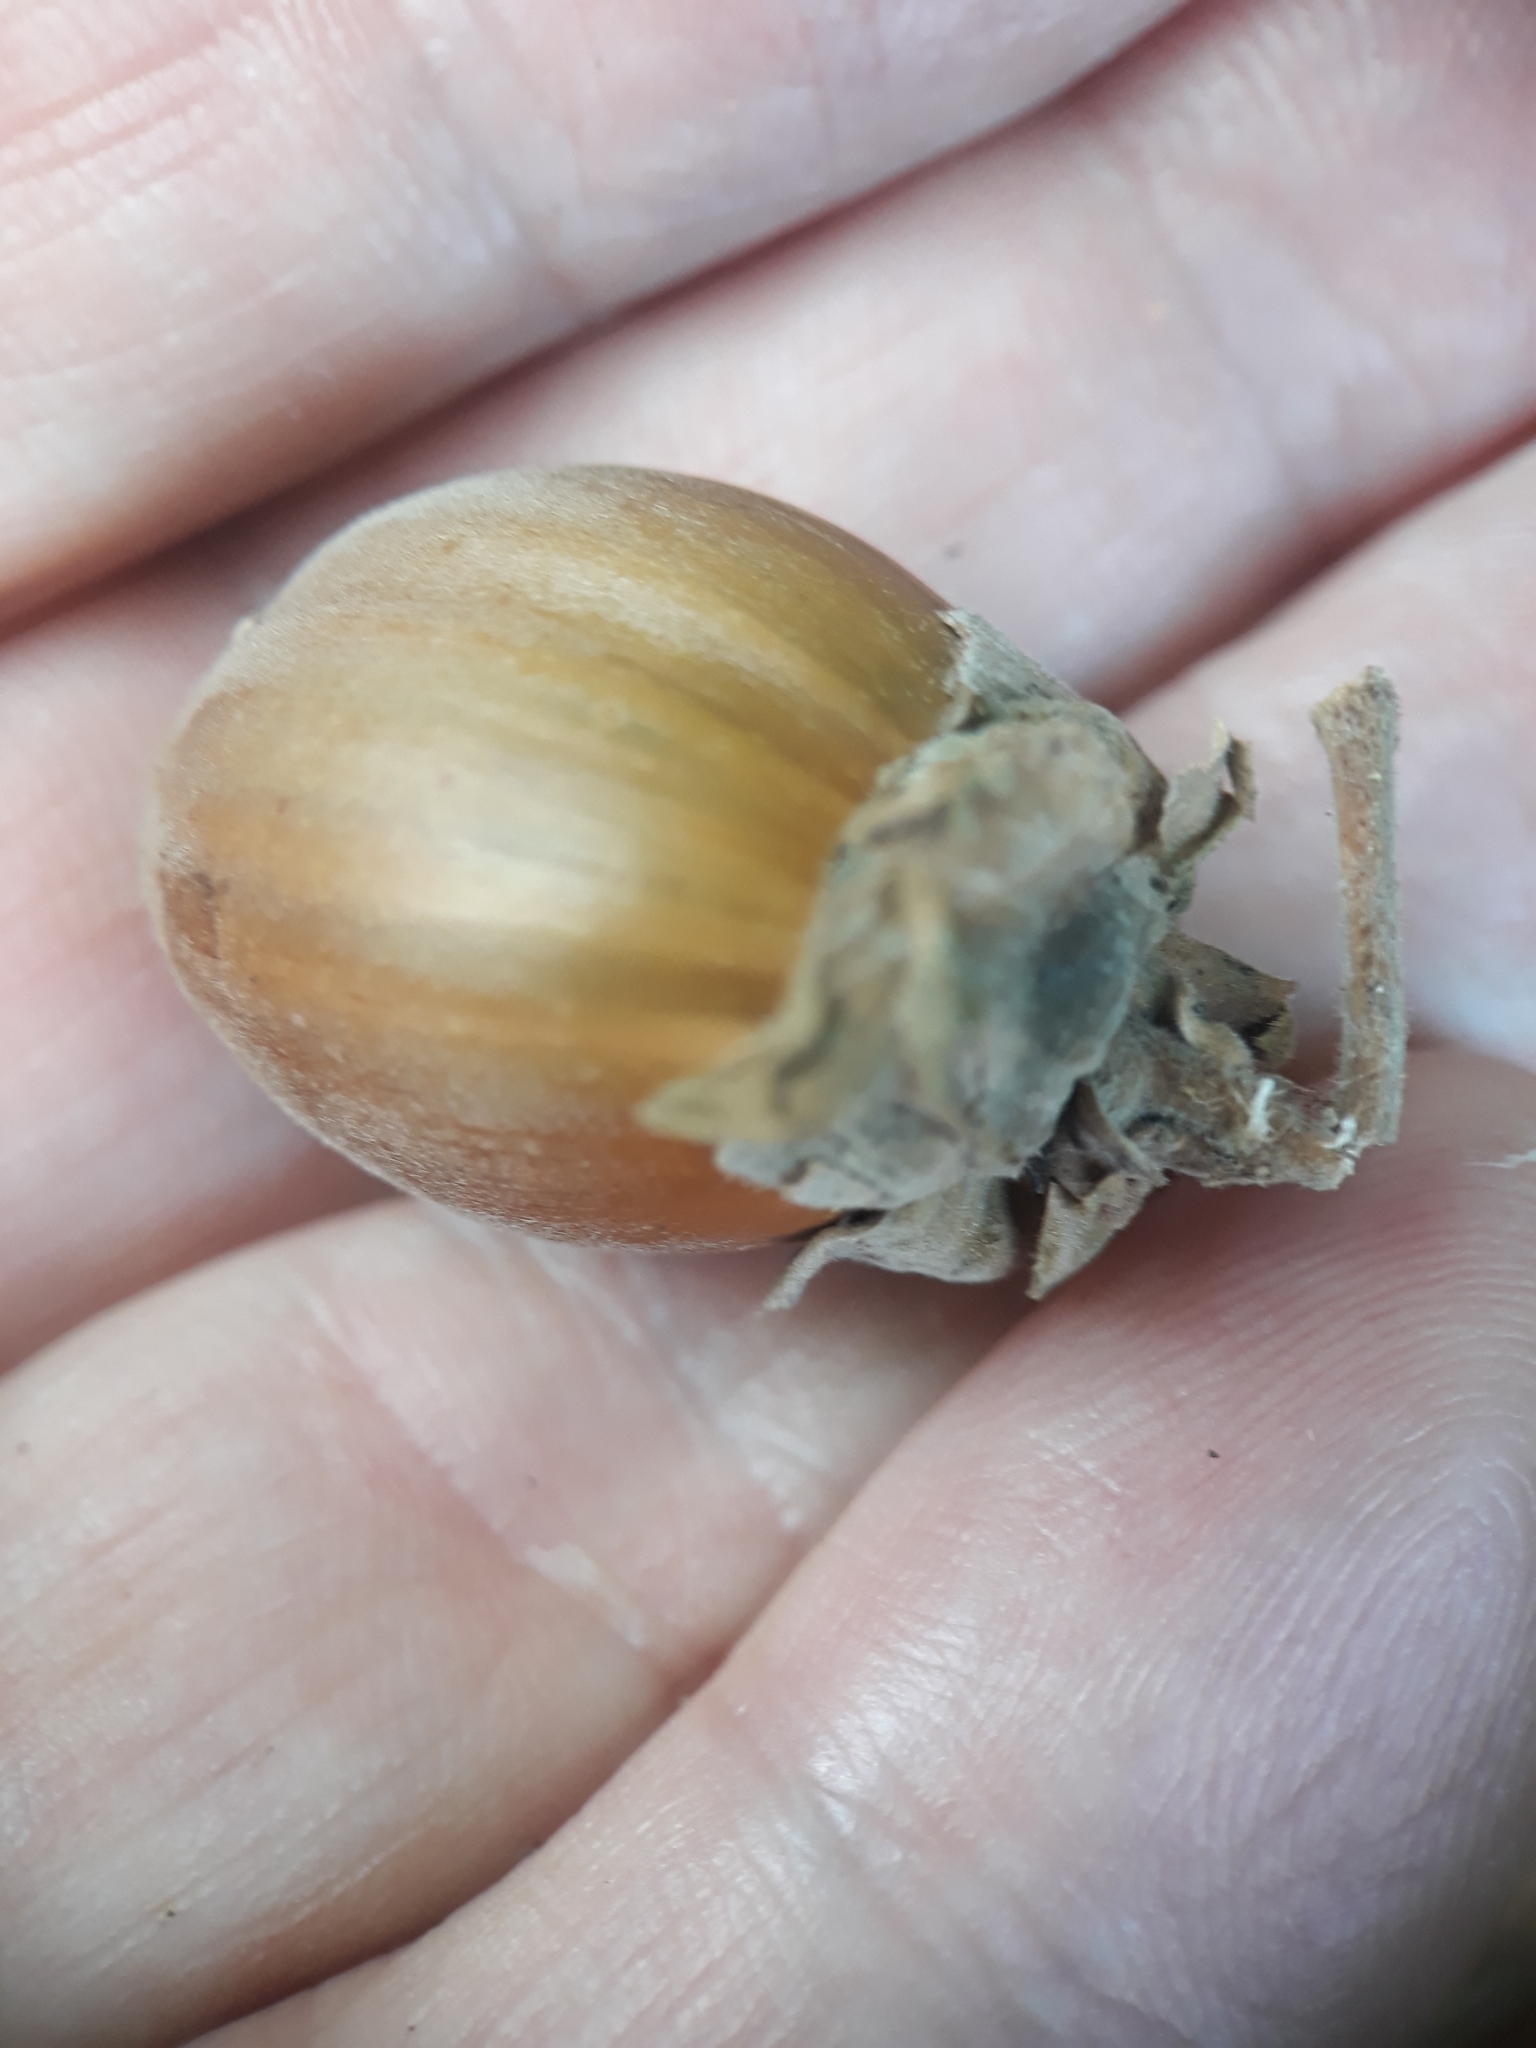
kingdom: Plantae
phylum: Tracheophyta
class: Magnoliopsida
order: Fagales
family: Betulaceae
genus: Corylus
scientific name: Corylus avellana
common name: European hazel
